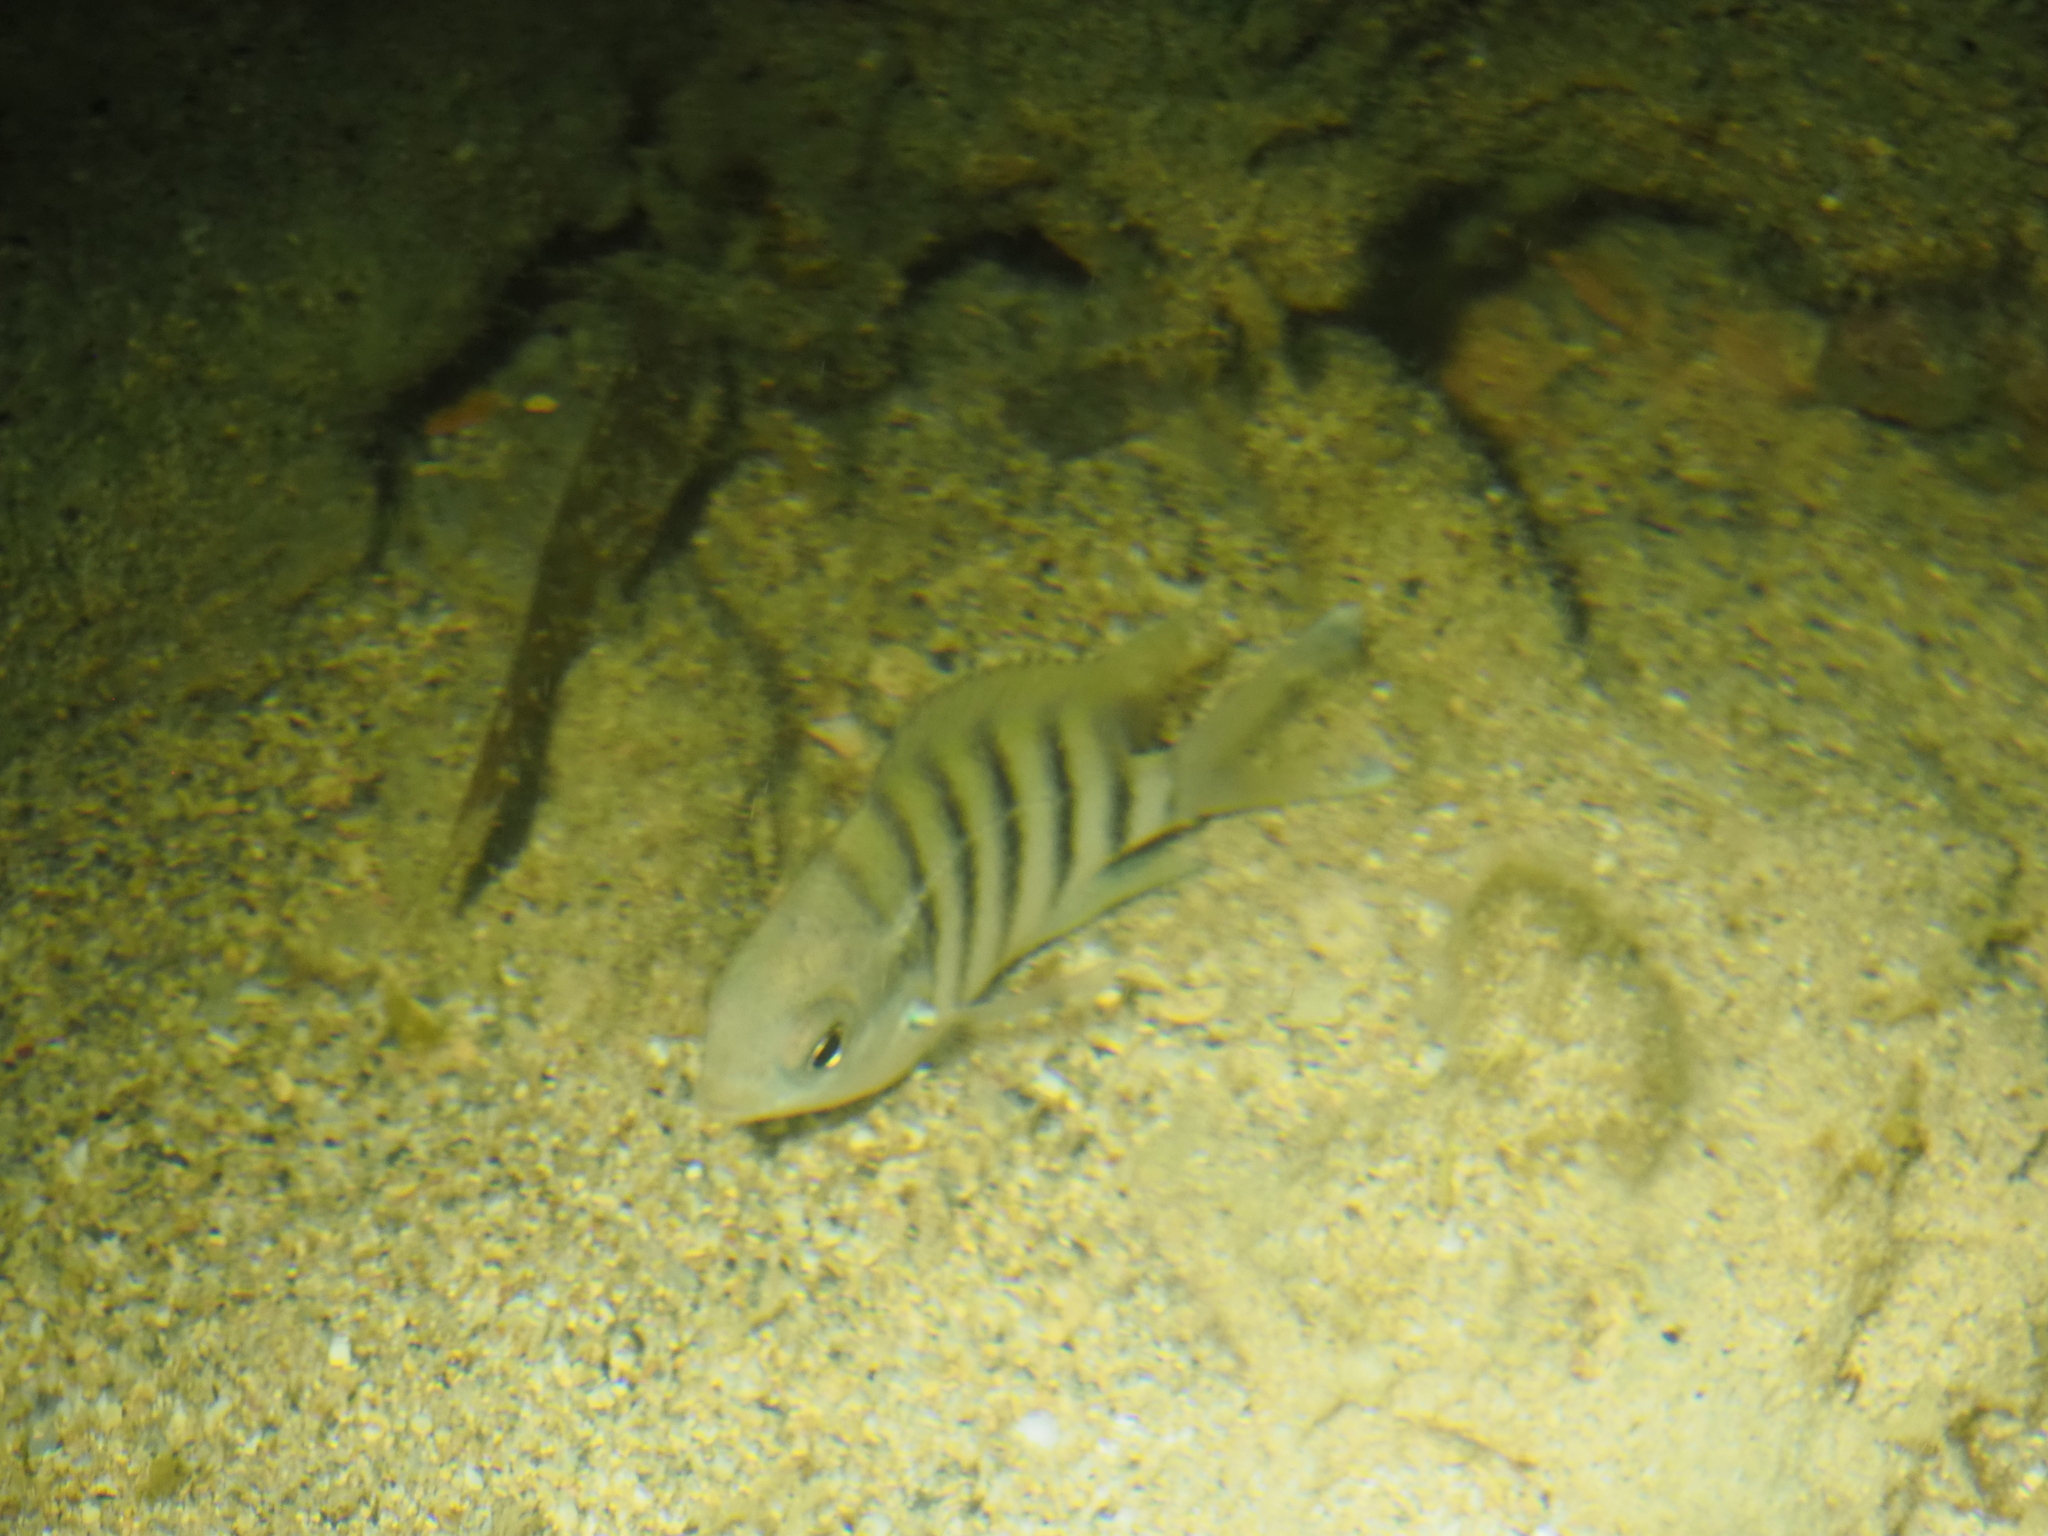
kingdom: Animalia
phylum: Chordata
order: Perciformes
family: Pomacentridae
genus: Abudefduf
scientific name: Abudefduf bengalensis
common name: Bengal sergeant
